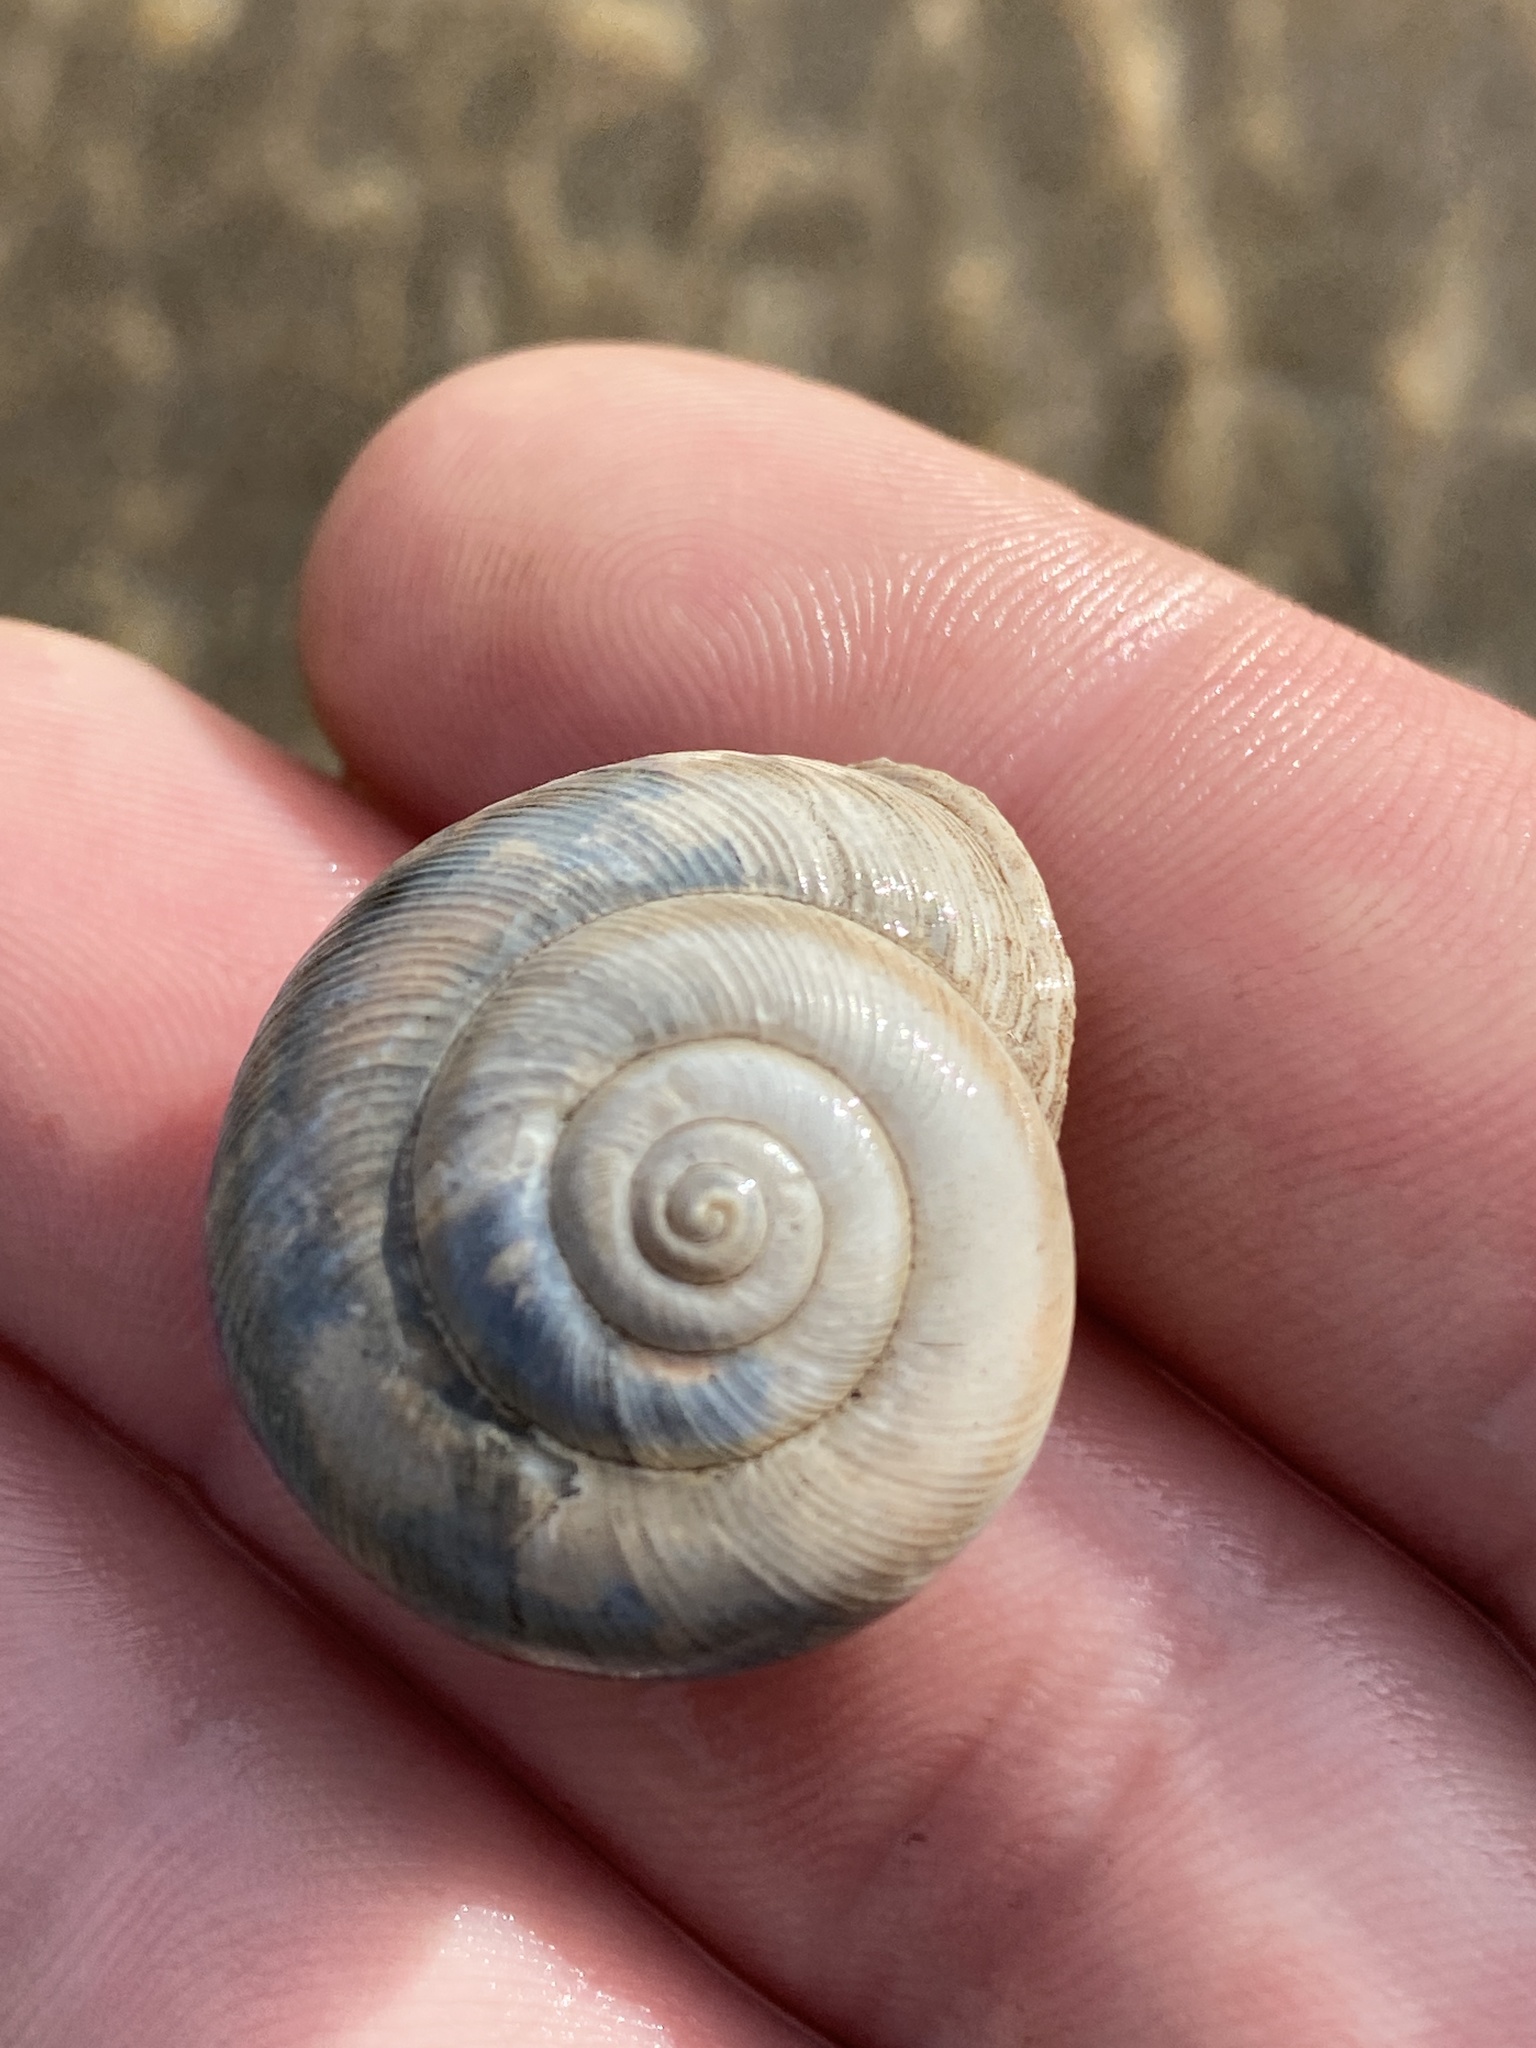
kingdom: Animalia
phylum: Mollusca
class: Gastropoda
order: Stylommatophora
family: Polygyridae
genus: Allogona
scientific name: Allogona profunda
